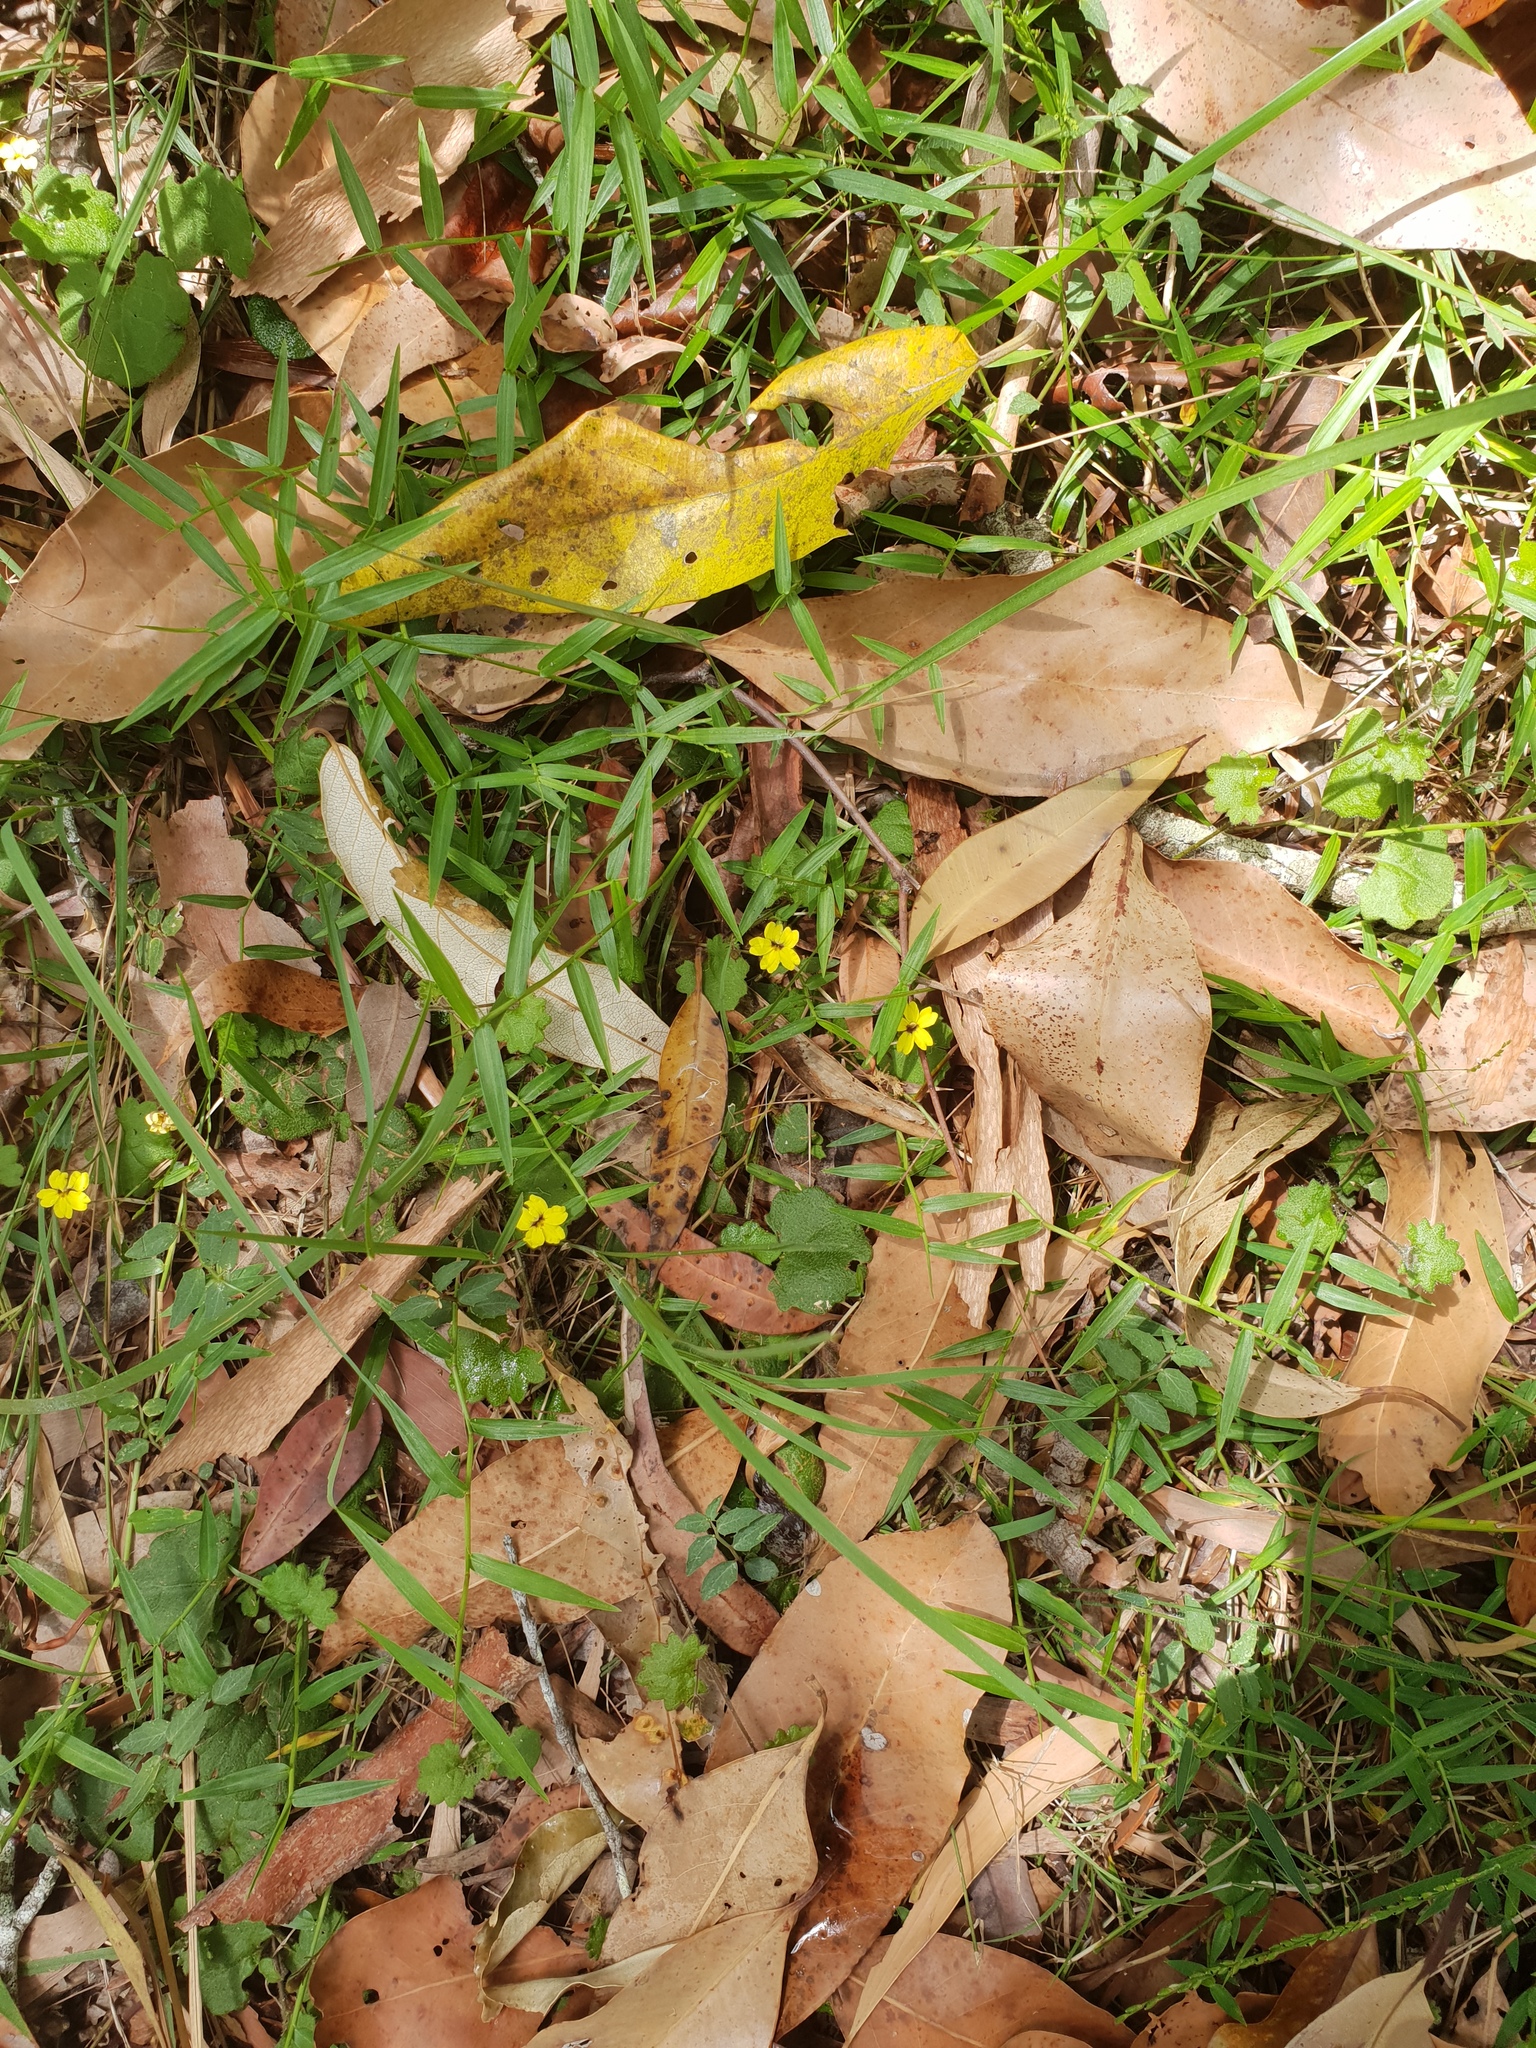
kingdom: Plantae
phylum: Tracheophyta
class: Magnoliopsida
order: Asterales
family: Goodeniaceae
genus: Goodenia
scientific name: Goodenia rotundifolia
